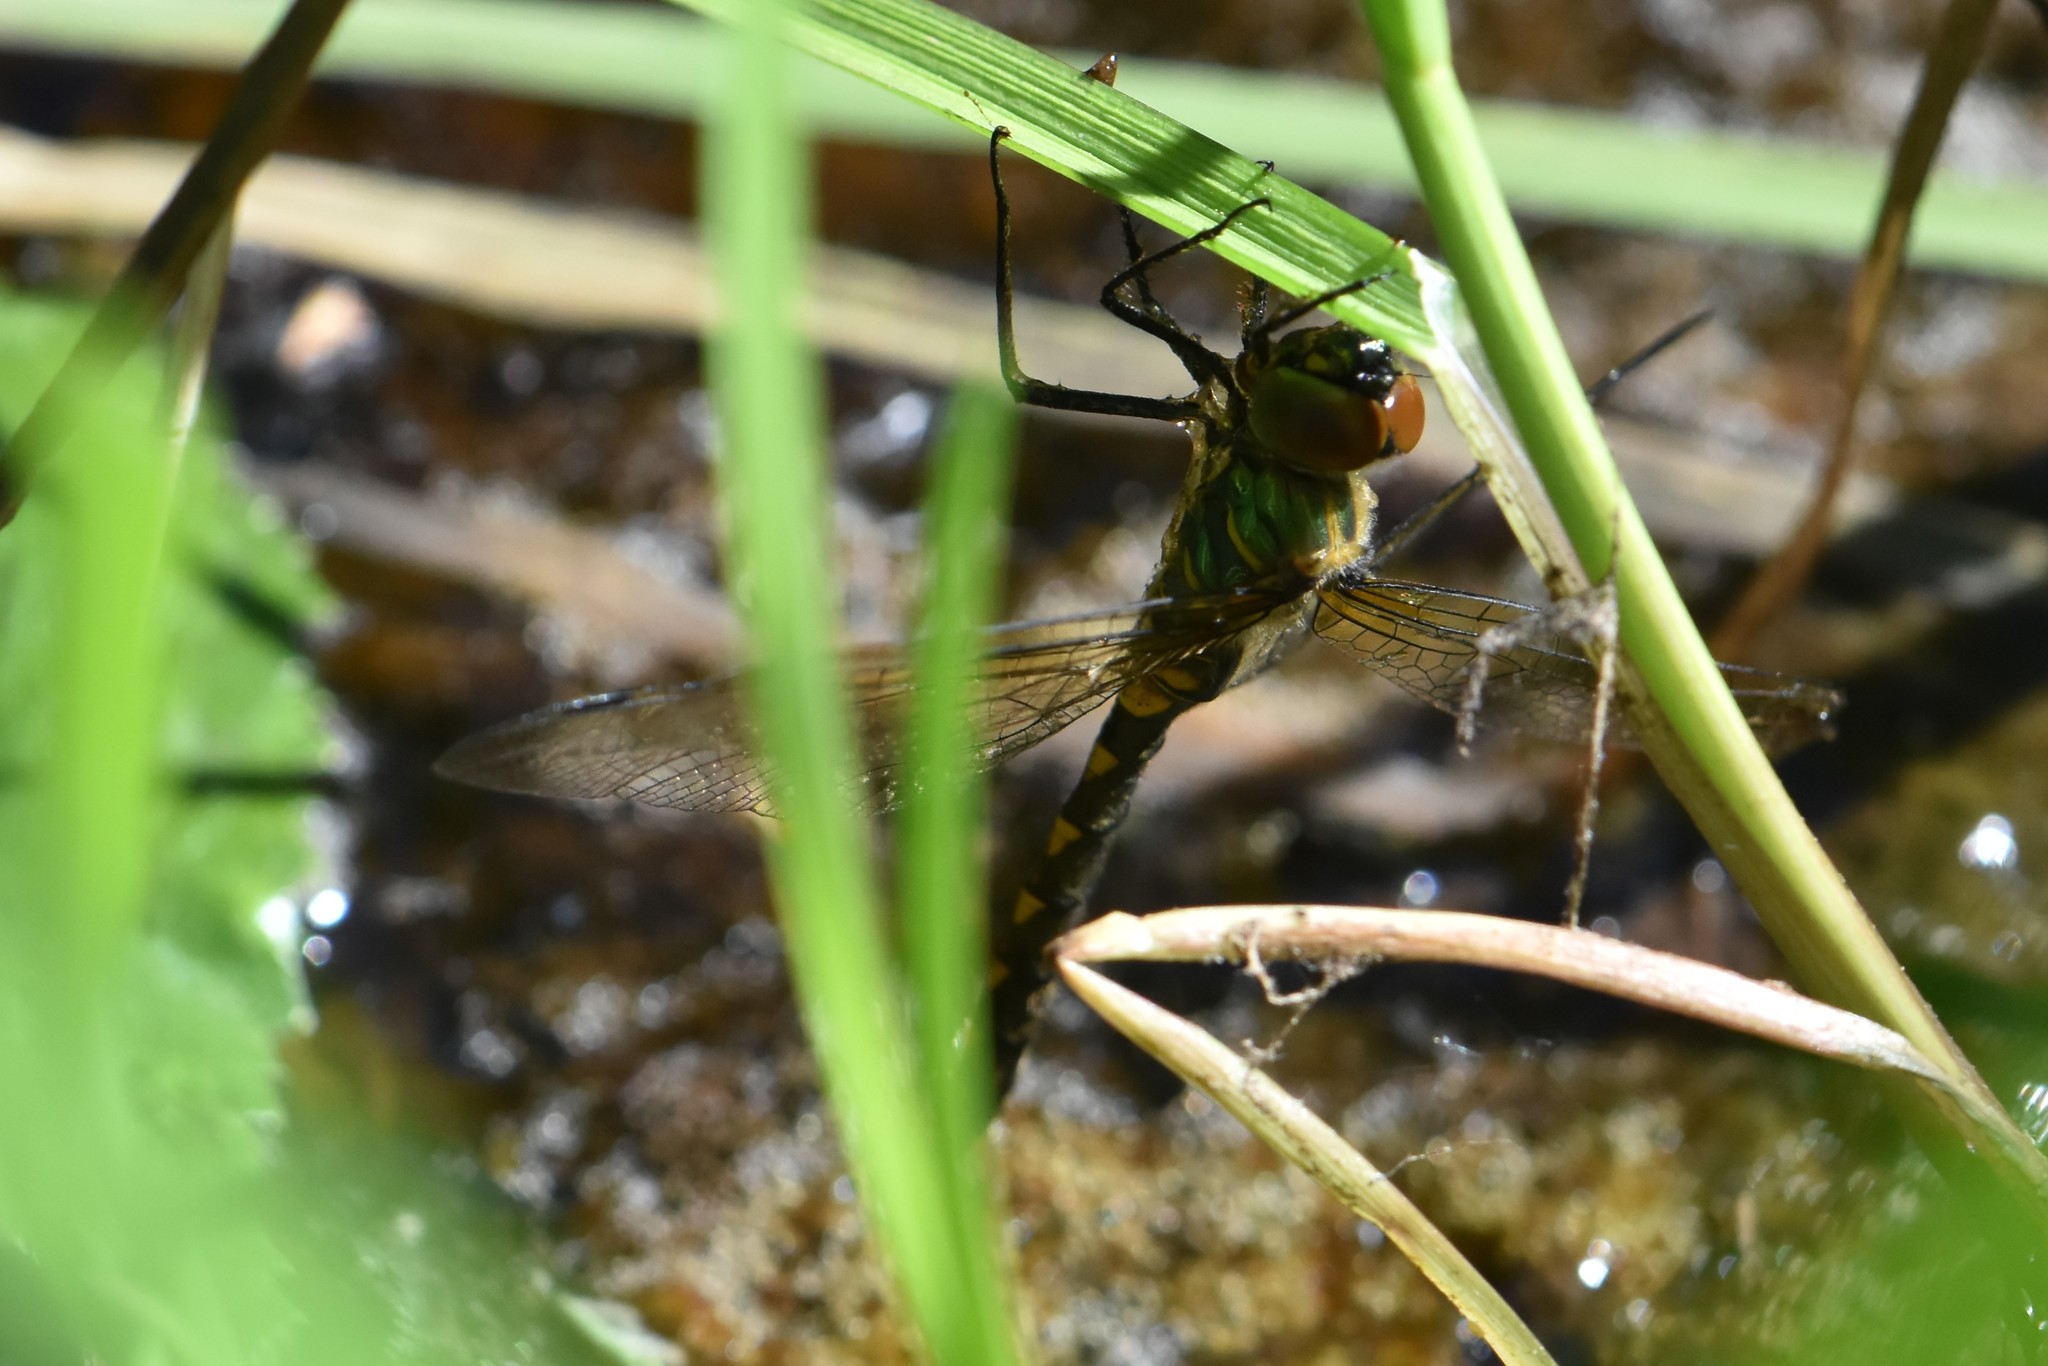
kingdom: Animalia
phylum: Arthropoda
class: Insecta
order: Odonata
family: Corduliidae
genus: Somatochlora
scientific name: Somatochlora flavomaculata
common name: Yellow-spotted emerald
